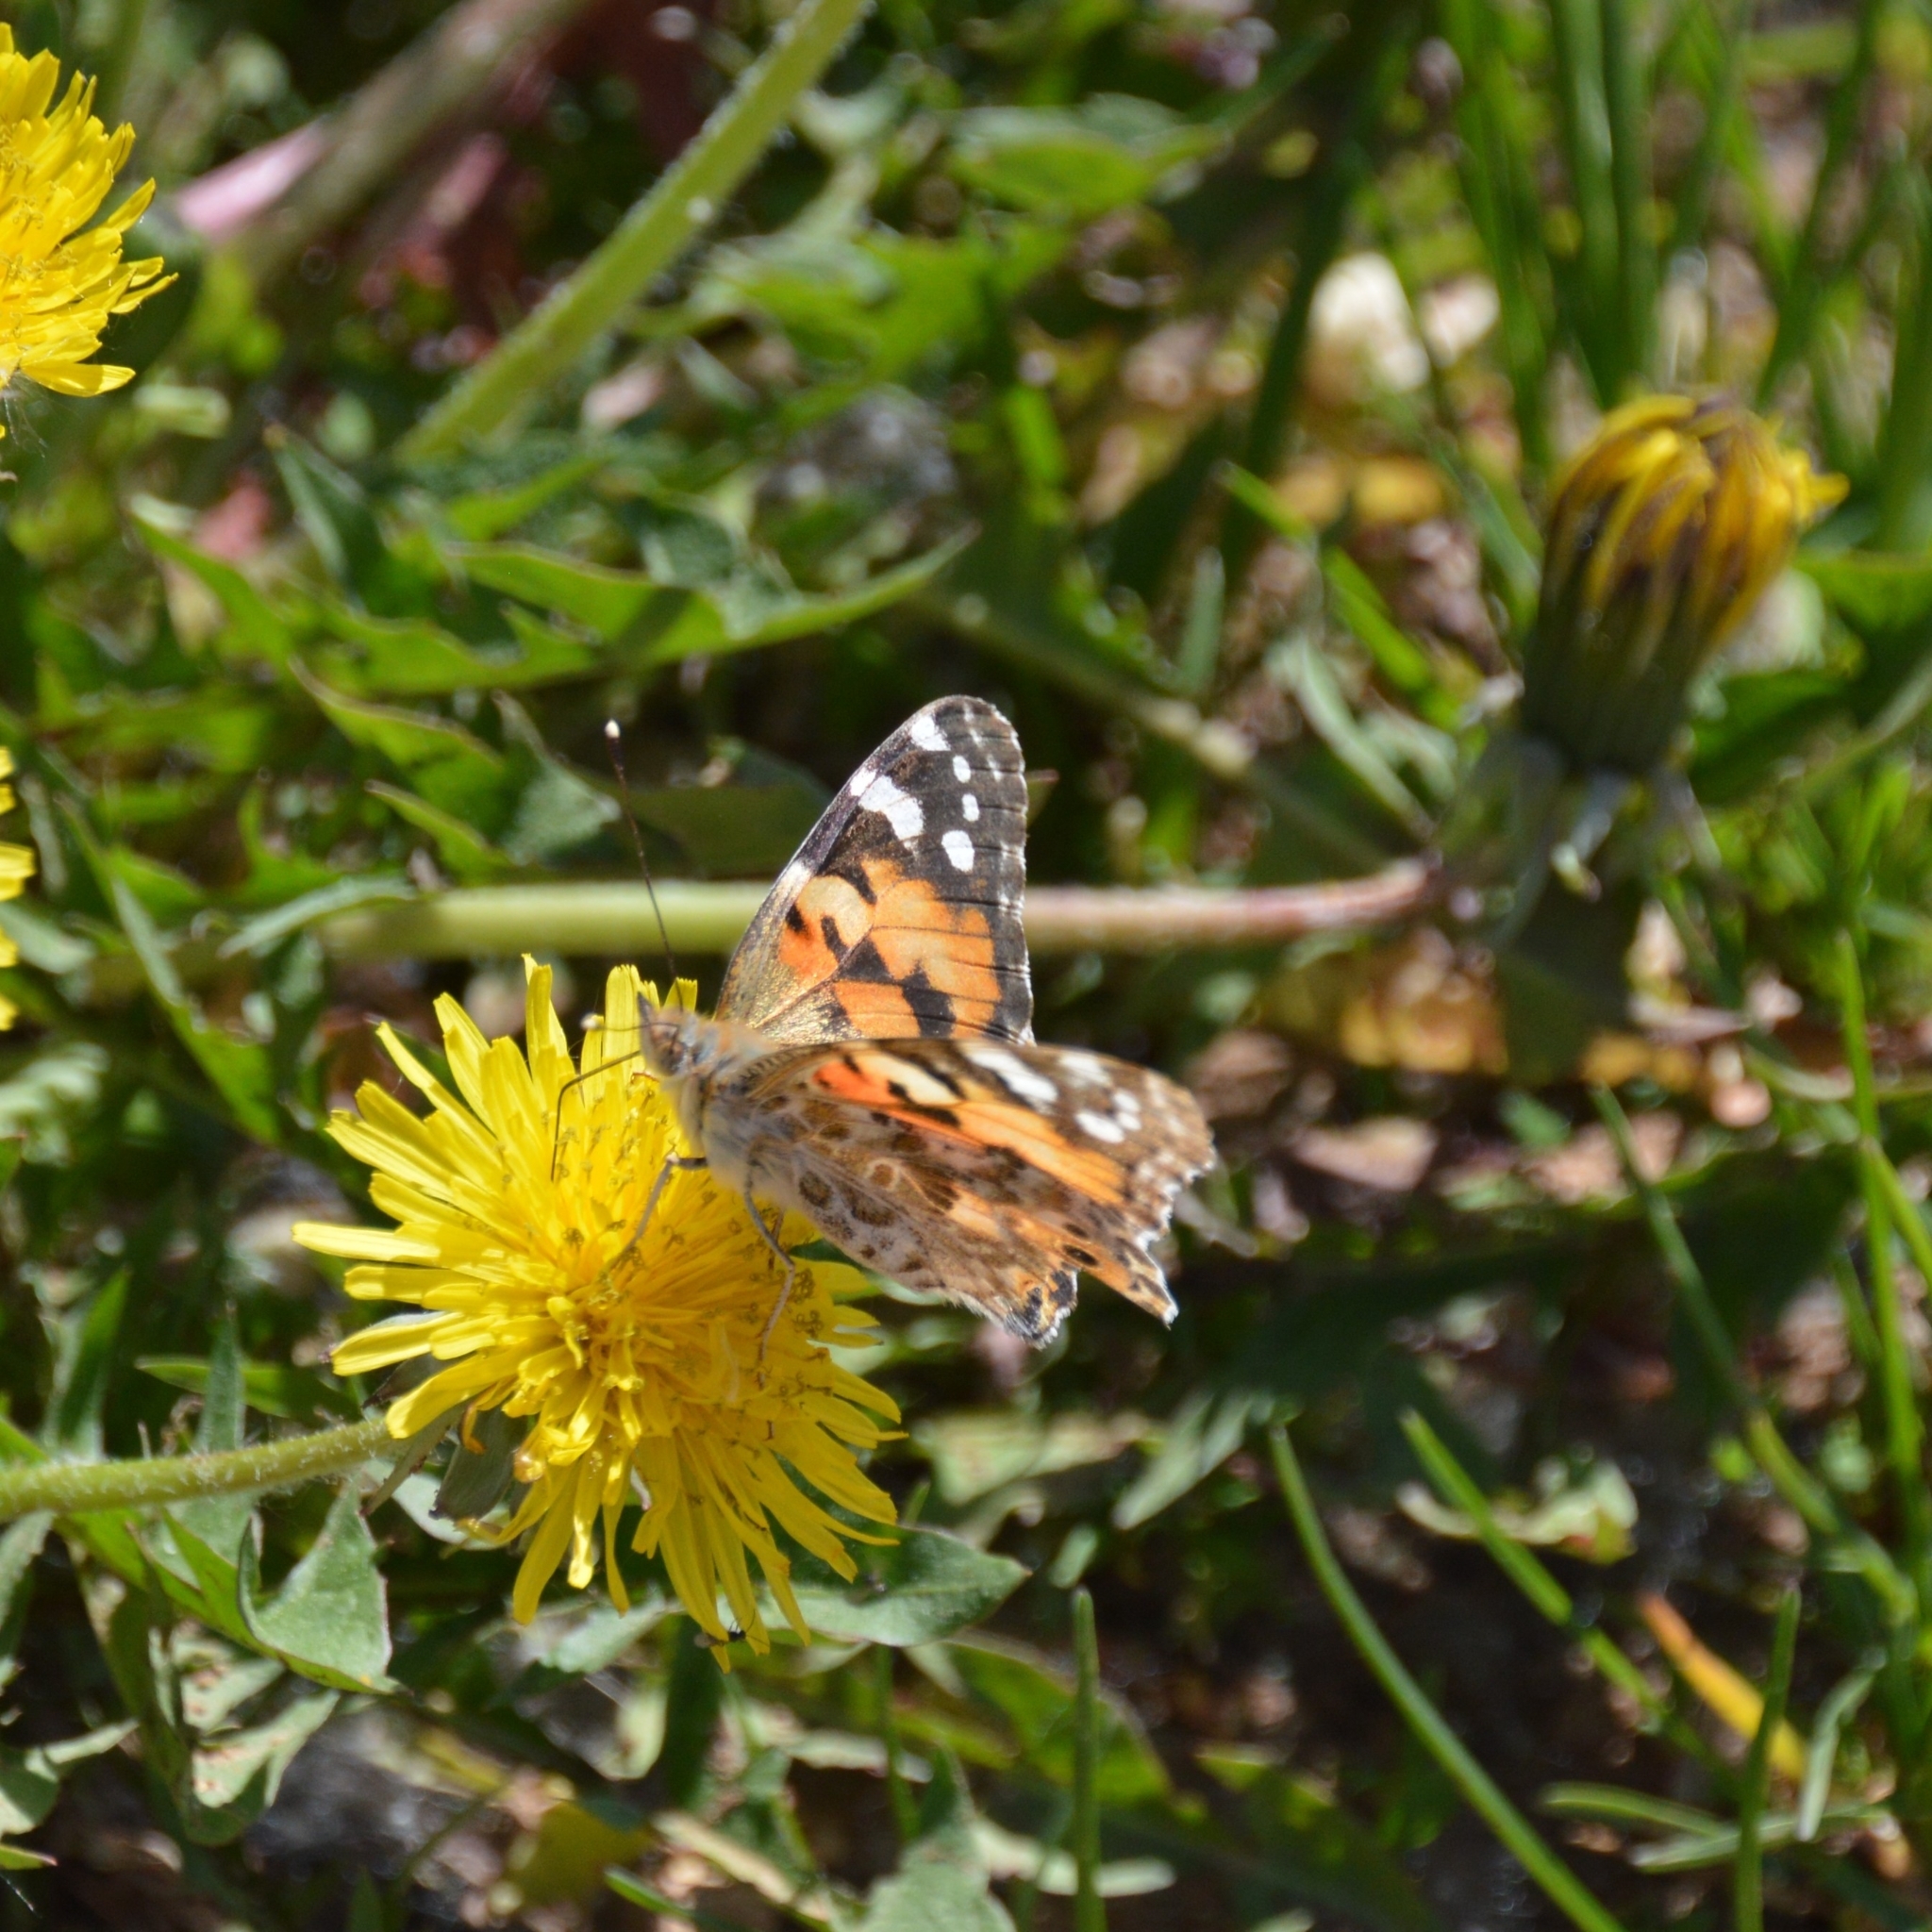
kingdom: Animalia
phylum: Arthropoda
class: Insecta
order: Lepidoptera
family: Nymphalidae
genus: Vanessa
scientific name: Vanessa cardui
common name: Painted lady
